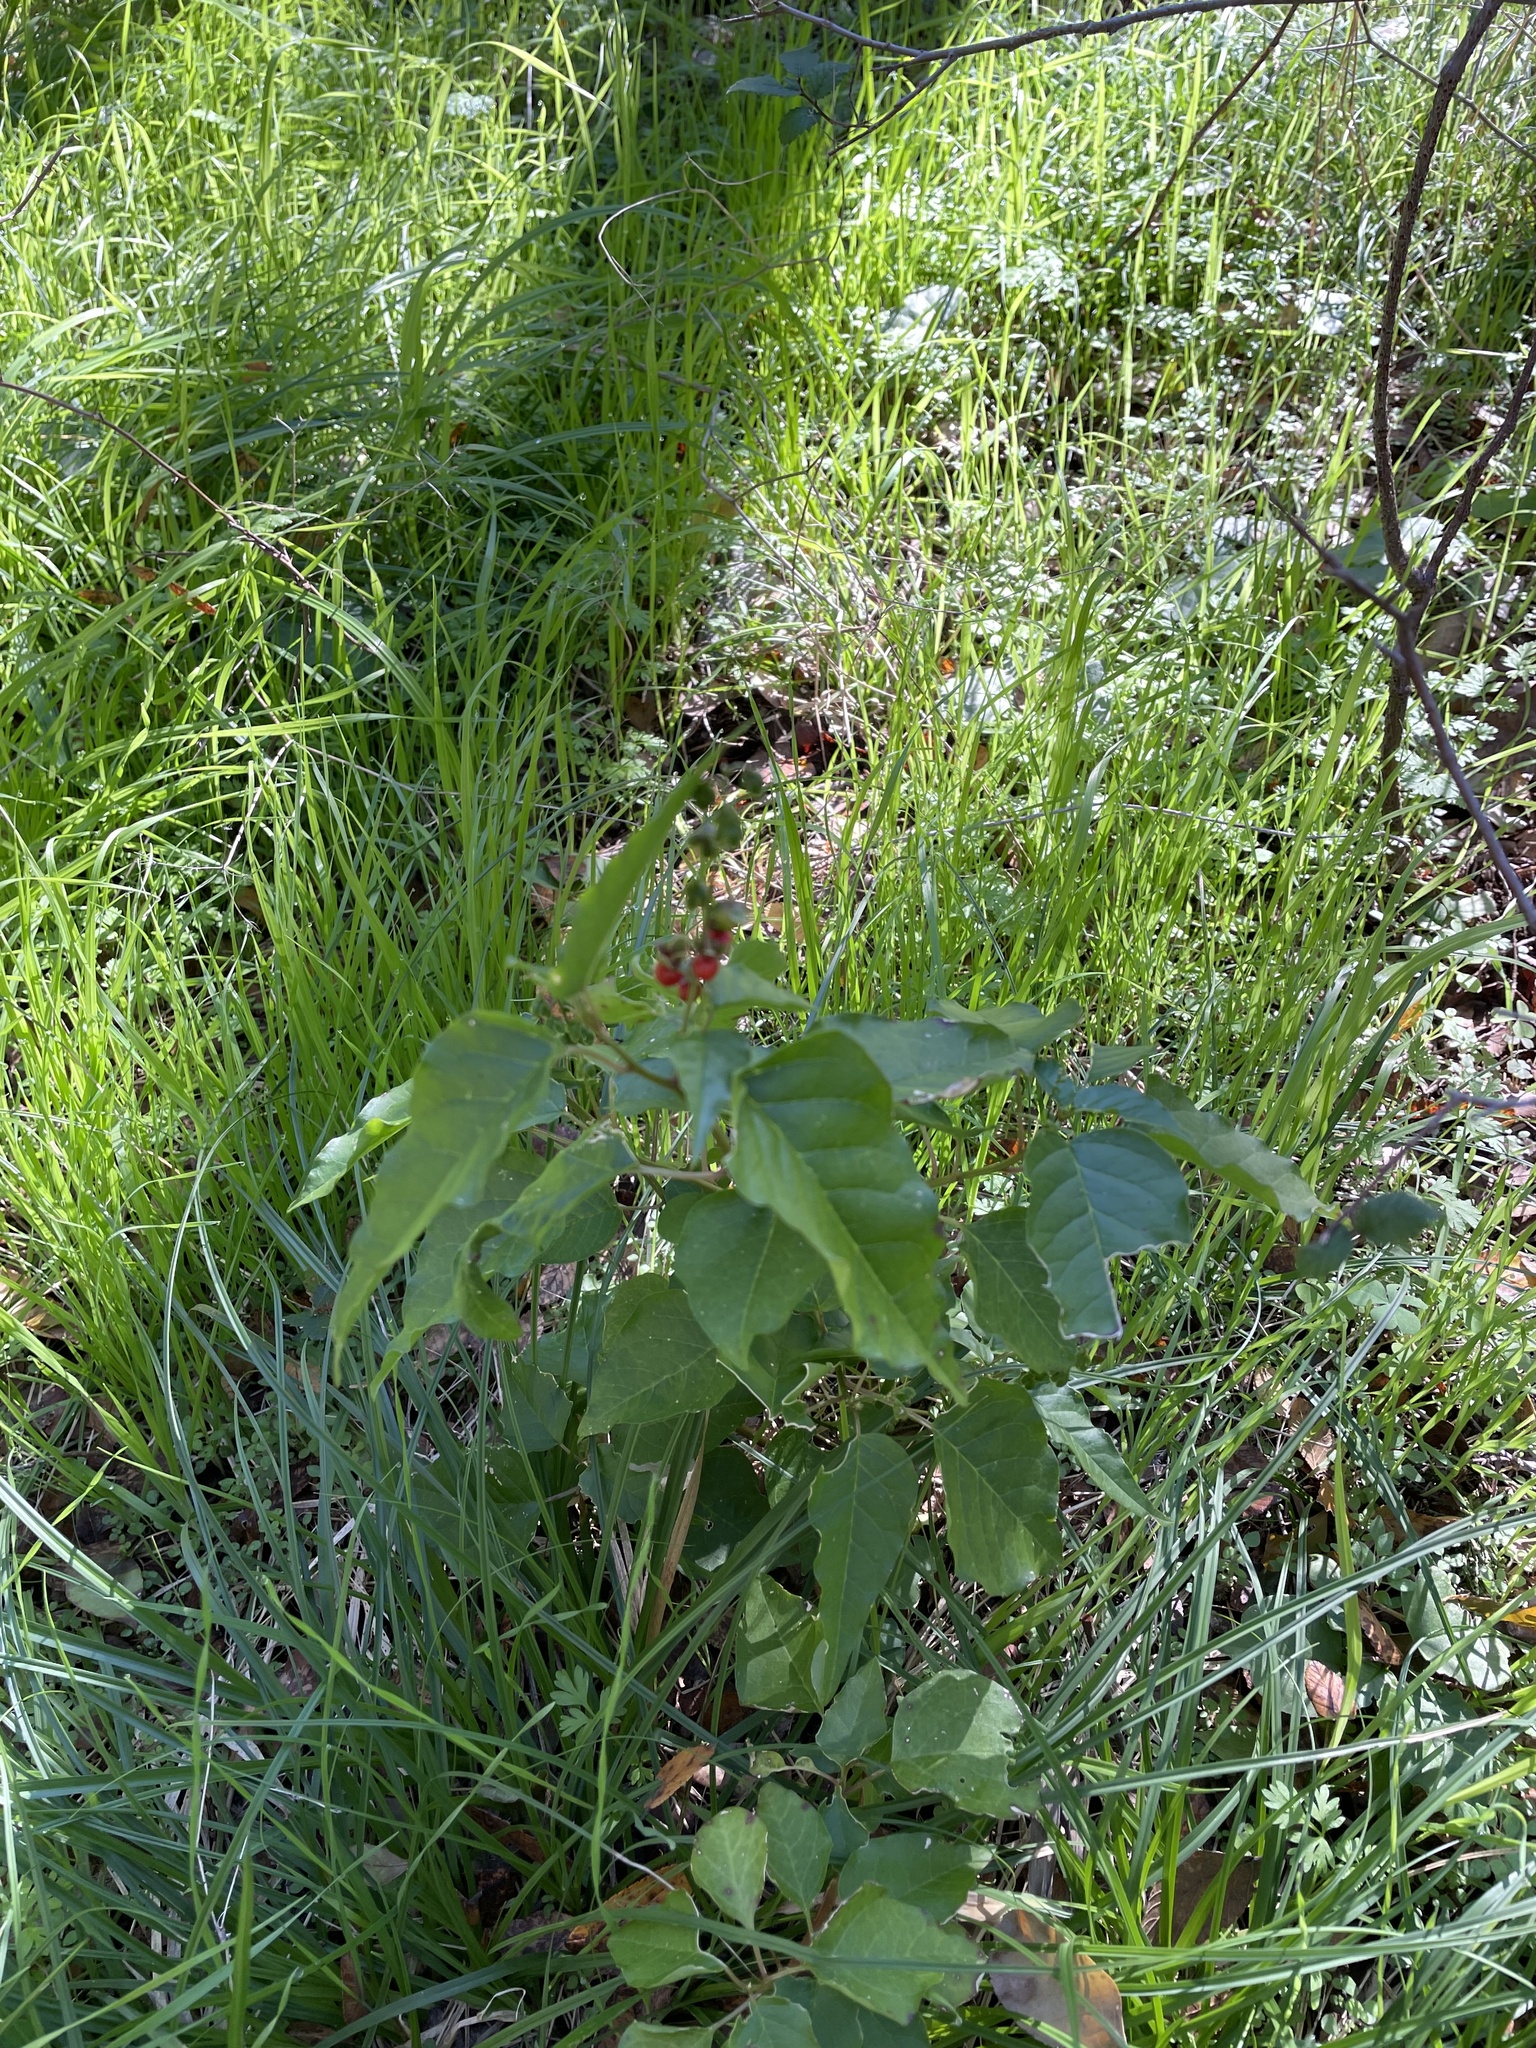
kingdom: Plantae
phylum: Tracheophyta
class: Magnoliopsida
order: Caryophyllales
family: Phytolaccaceae
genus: Rivina
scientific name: Rivina humilis
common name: Rougeplant
